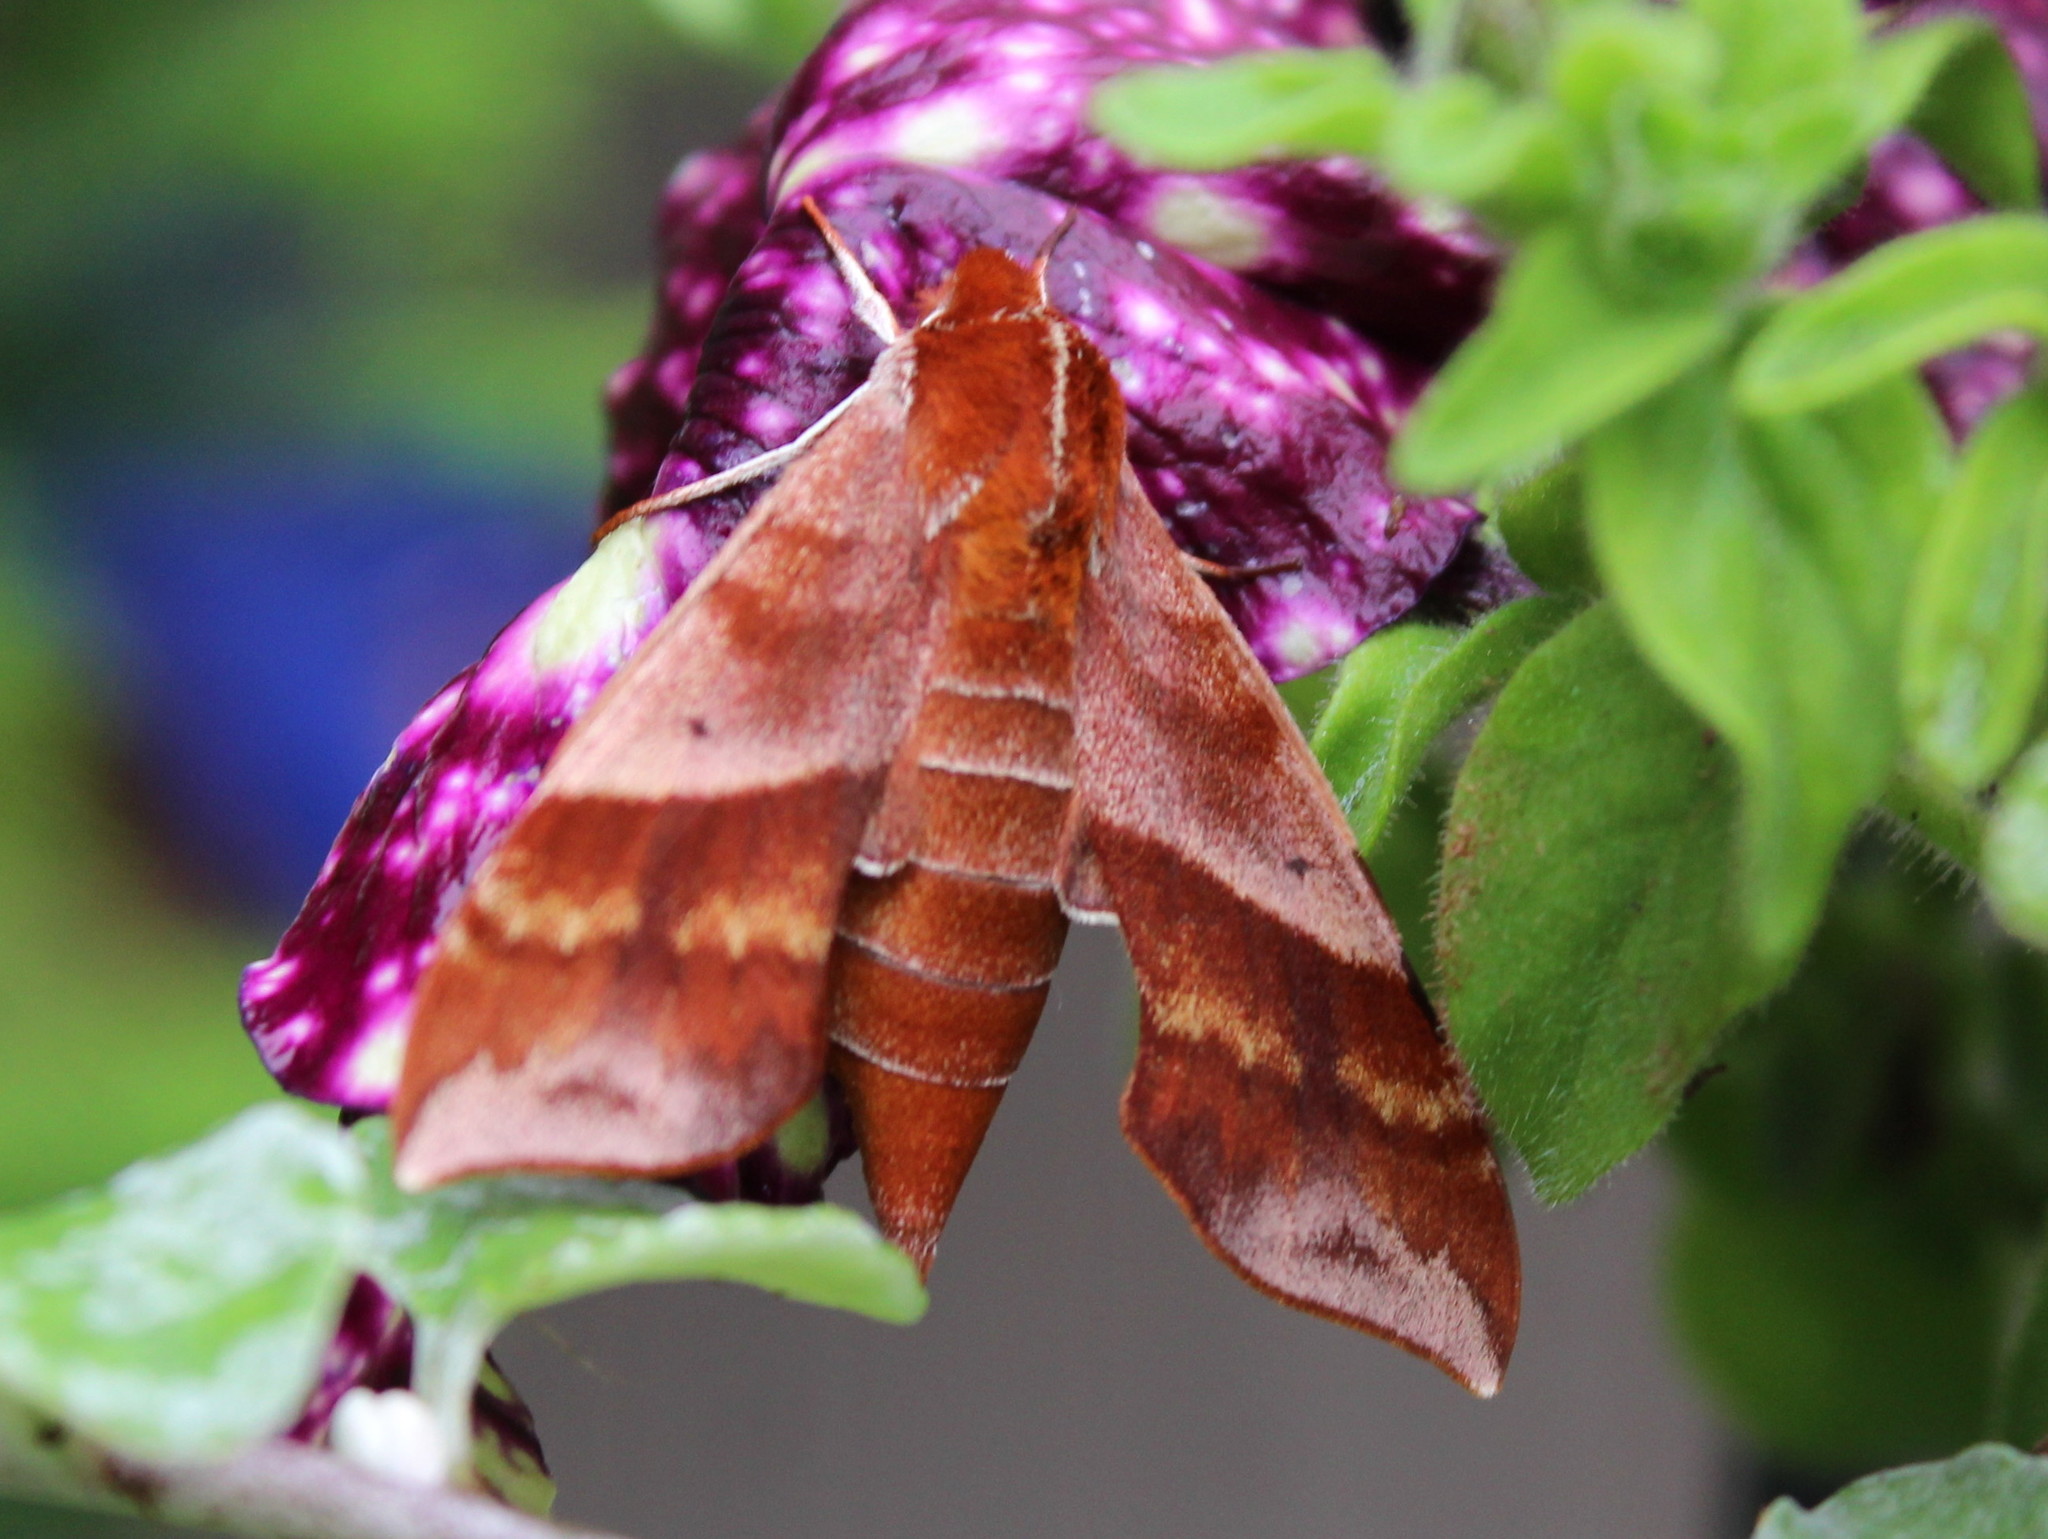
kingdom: Animalia
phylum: Arthropoda
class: Insecta
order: Lepidoptera
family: Sphingidae
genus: Darapsa
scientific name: Darapsa choerilus
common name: Azalea sphinx
